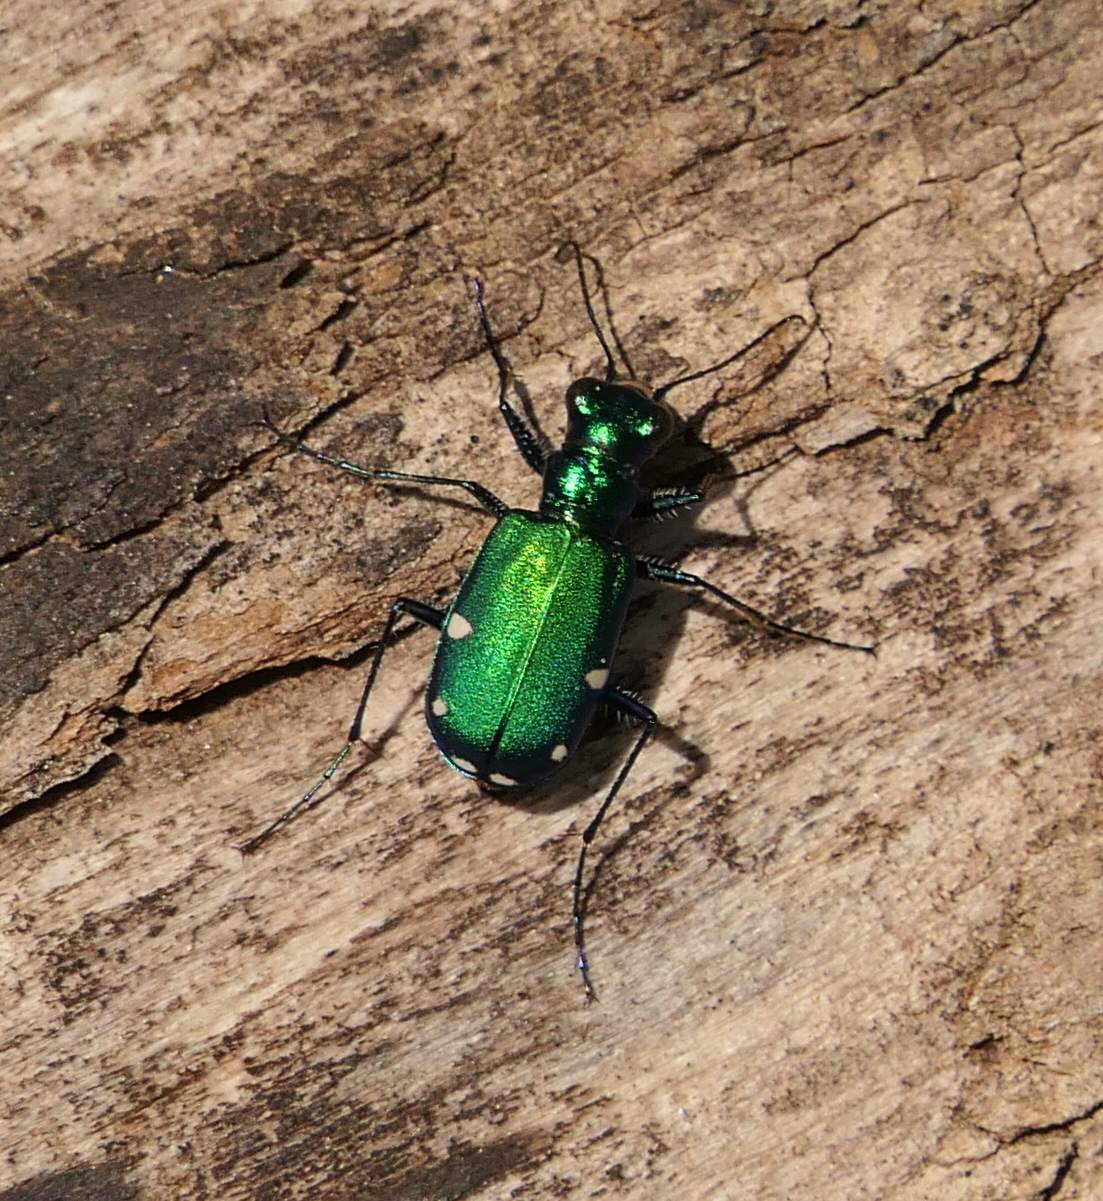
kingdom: Animalia
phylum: Arthropoda
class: Insecta
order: Coleoptera
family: Carabidae
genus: Cicindela
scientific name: Cicindela sexguttata
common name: Six-spotted tiger beetle
